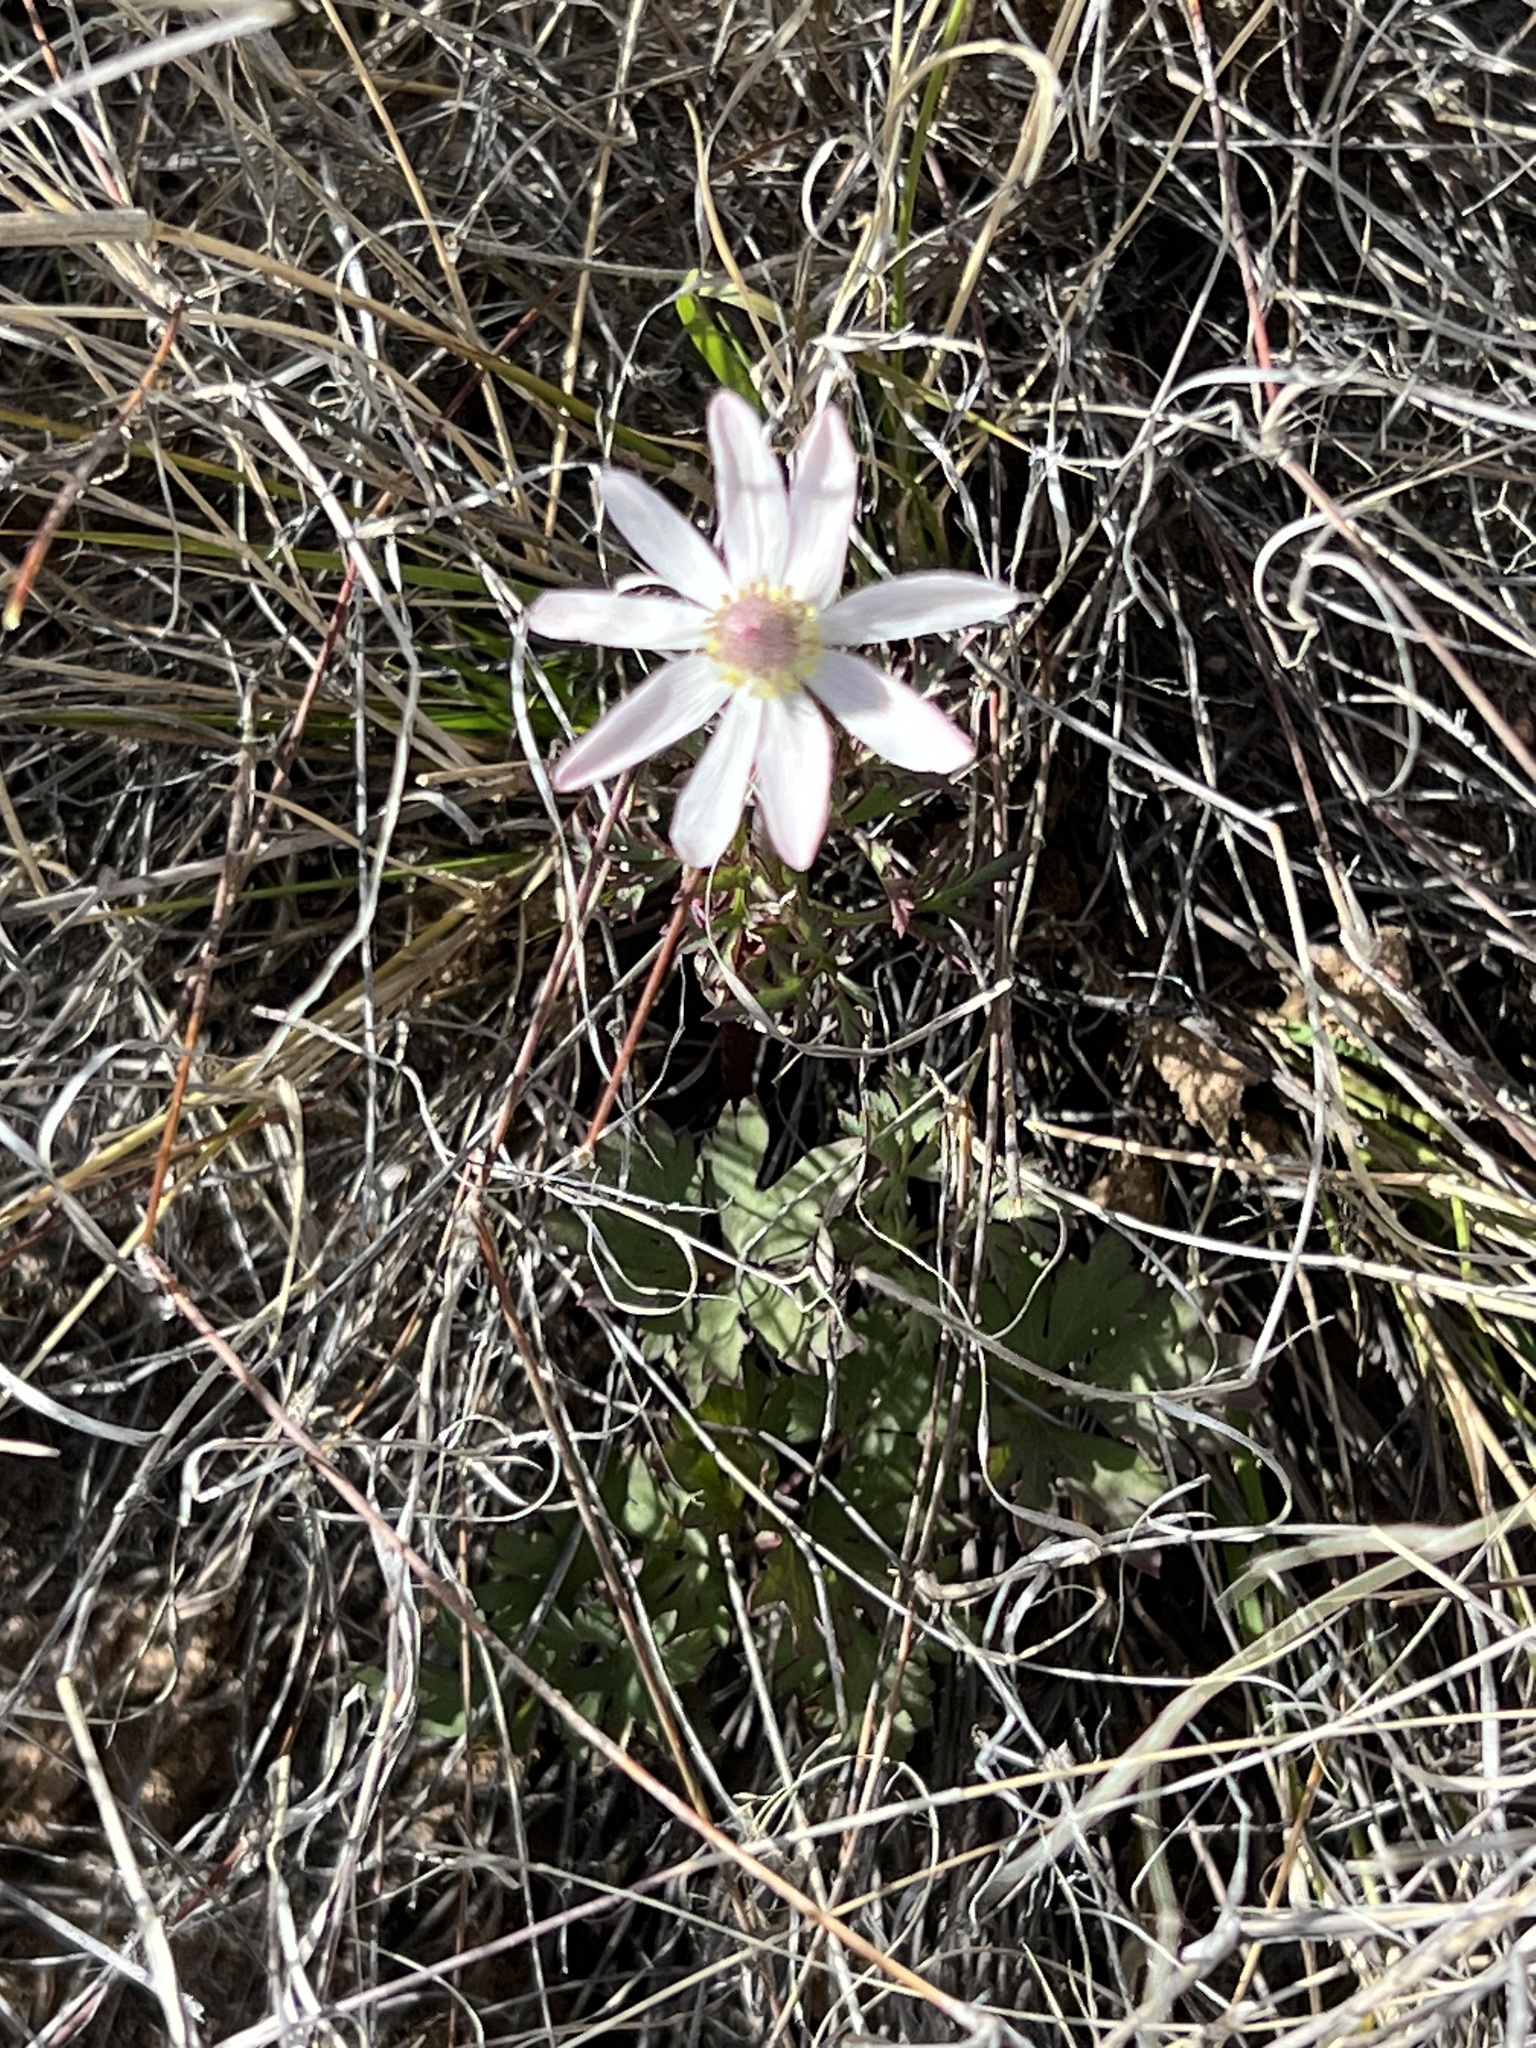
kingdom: Plantae
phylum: Tracheophyta
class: Magnoliopsida
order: Ranunculales
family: Ranunculaceae
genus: Anemone
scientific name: Anemone tuberosa
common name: Desert anemone
